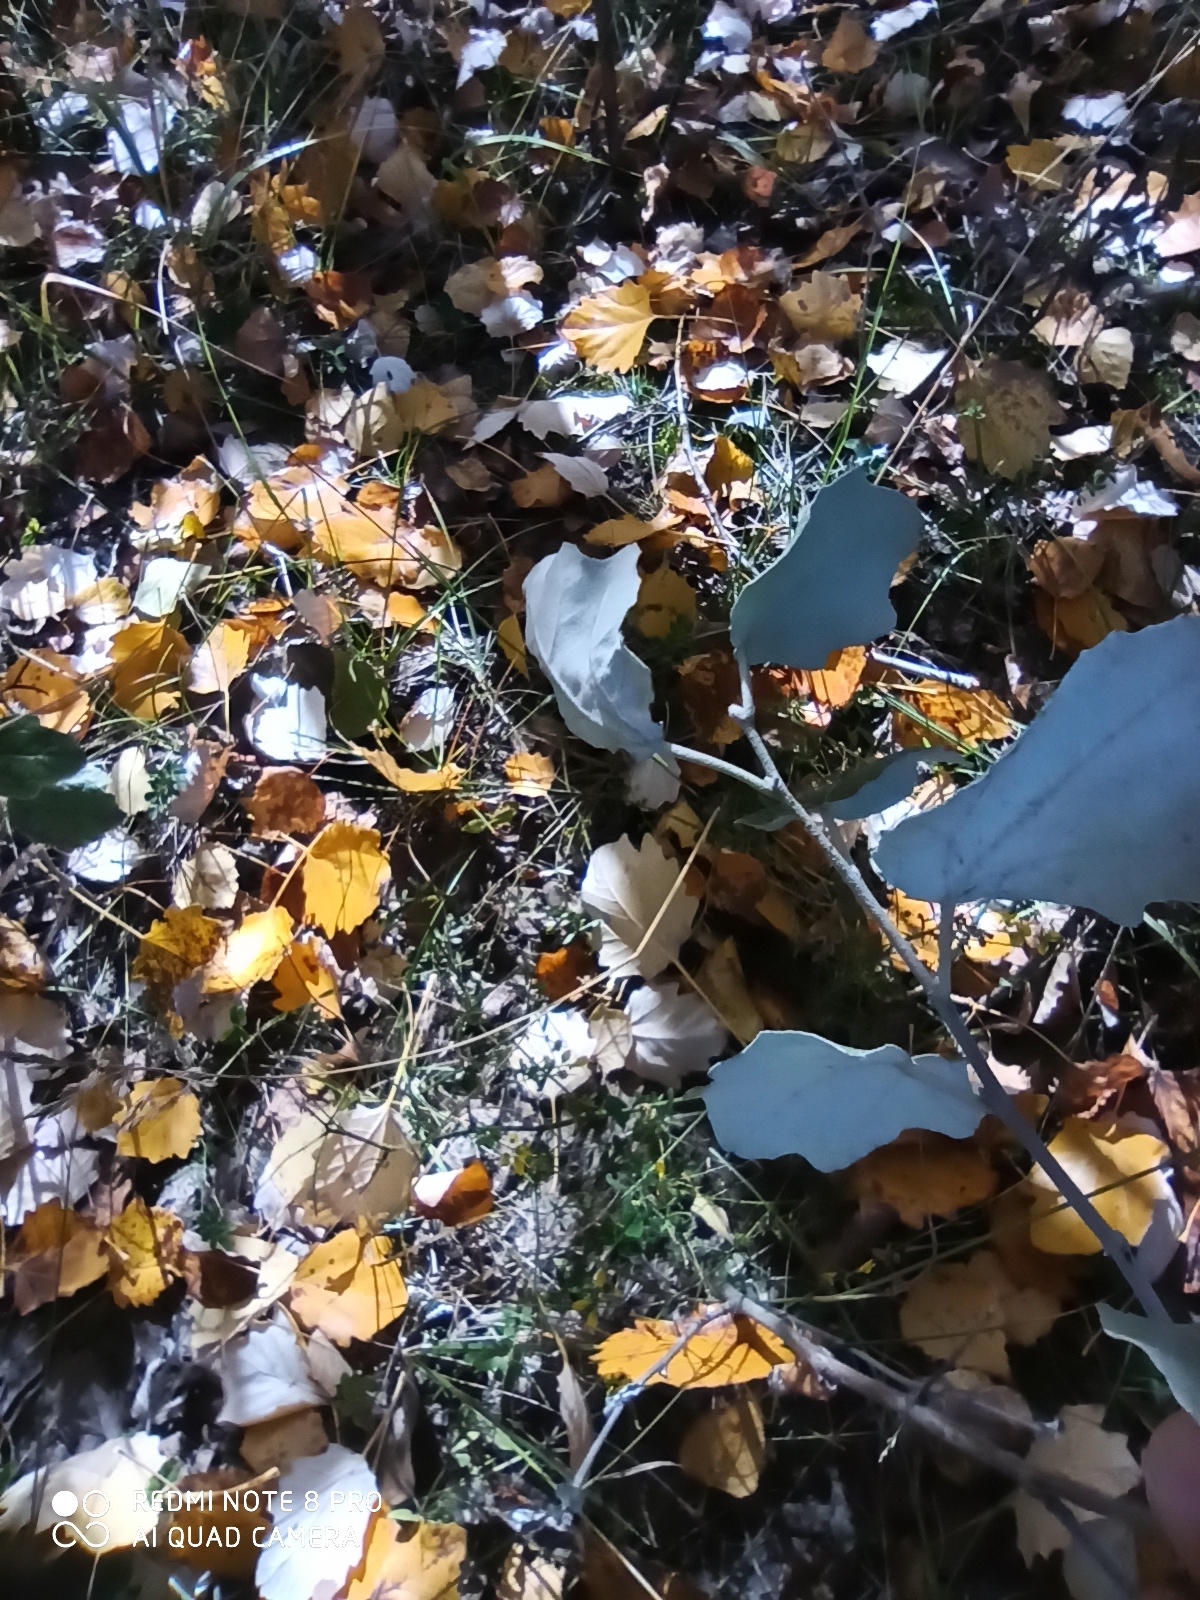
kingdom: Plantae
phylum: Tracheophyta
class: Magnoliopsida
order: Malpighiales
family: Salicaceae
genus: Populus
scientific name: Populus alba
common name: White poplar
